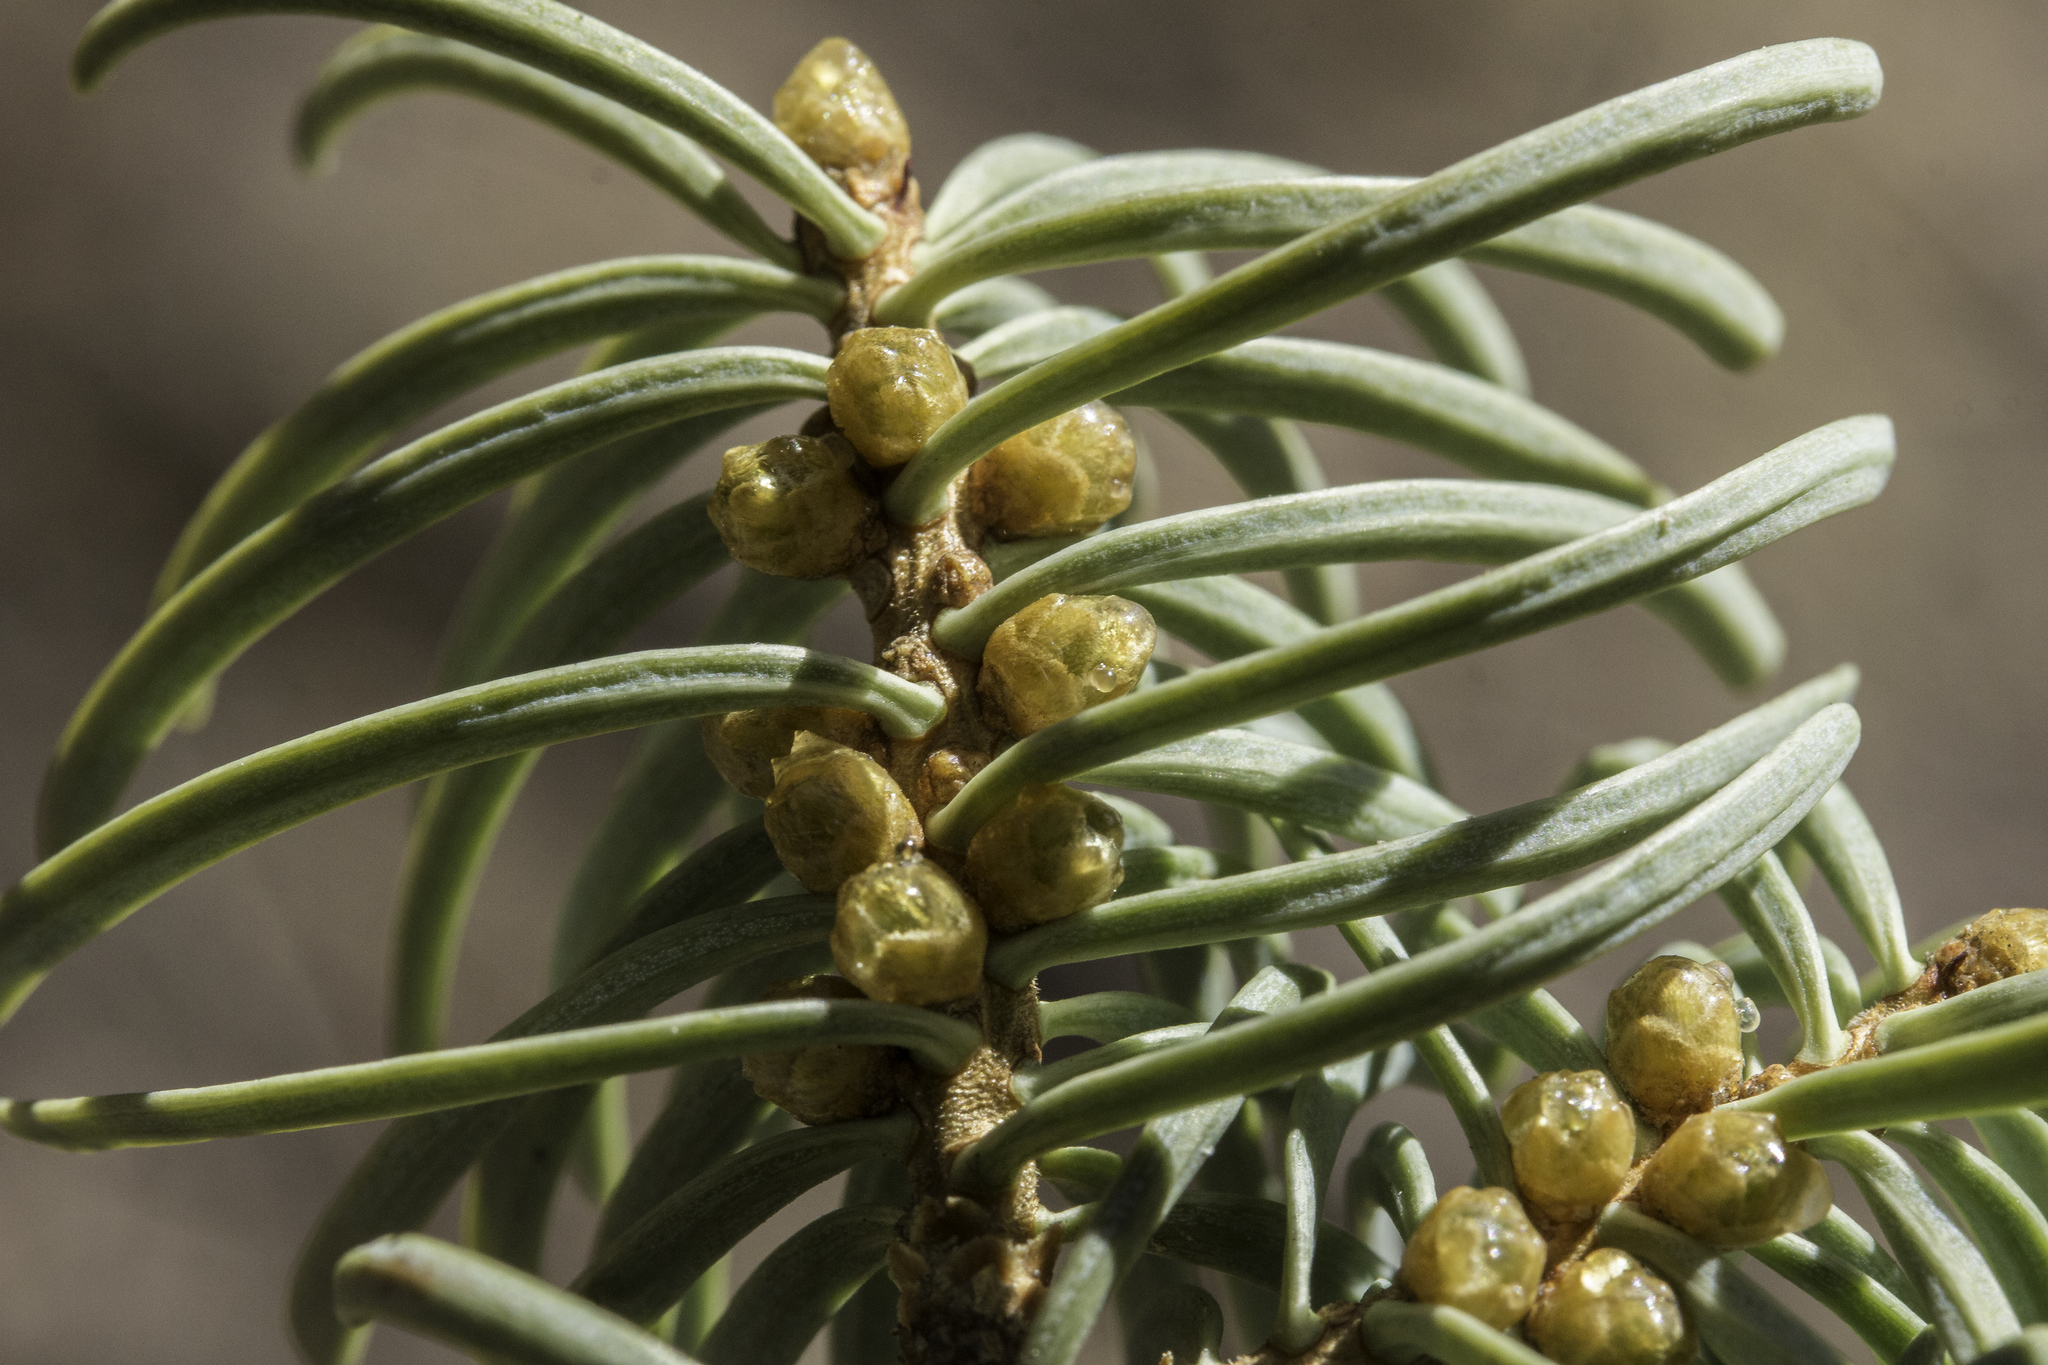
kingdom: Plantae
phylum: Tracheophyta
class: Pinopsida
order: Pinales
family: Pinaceae
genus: Abies
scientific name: Abies concolor
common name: Colorado fir
